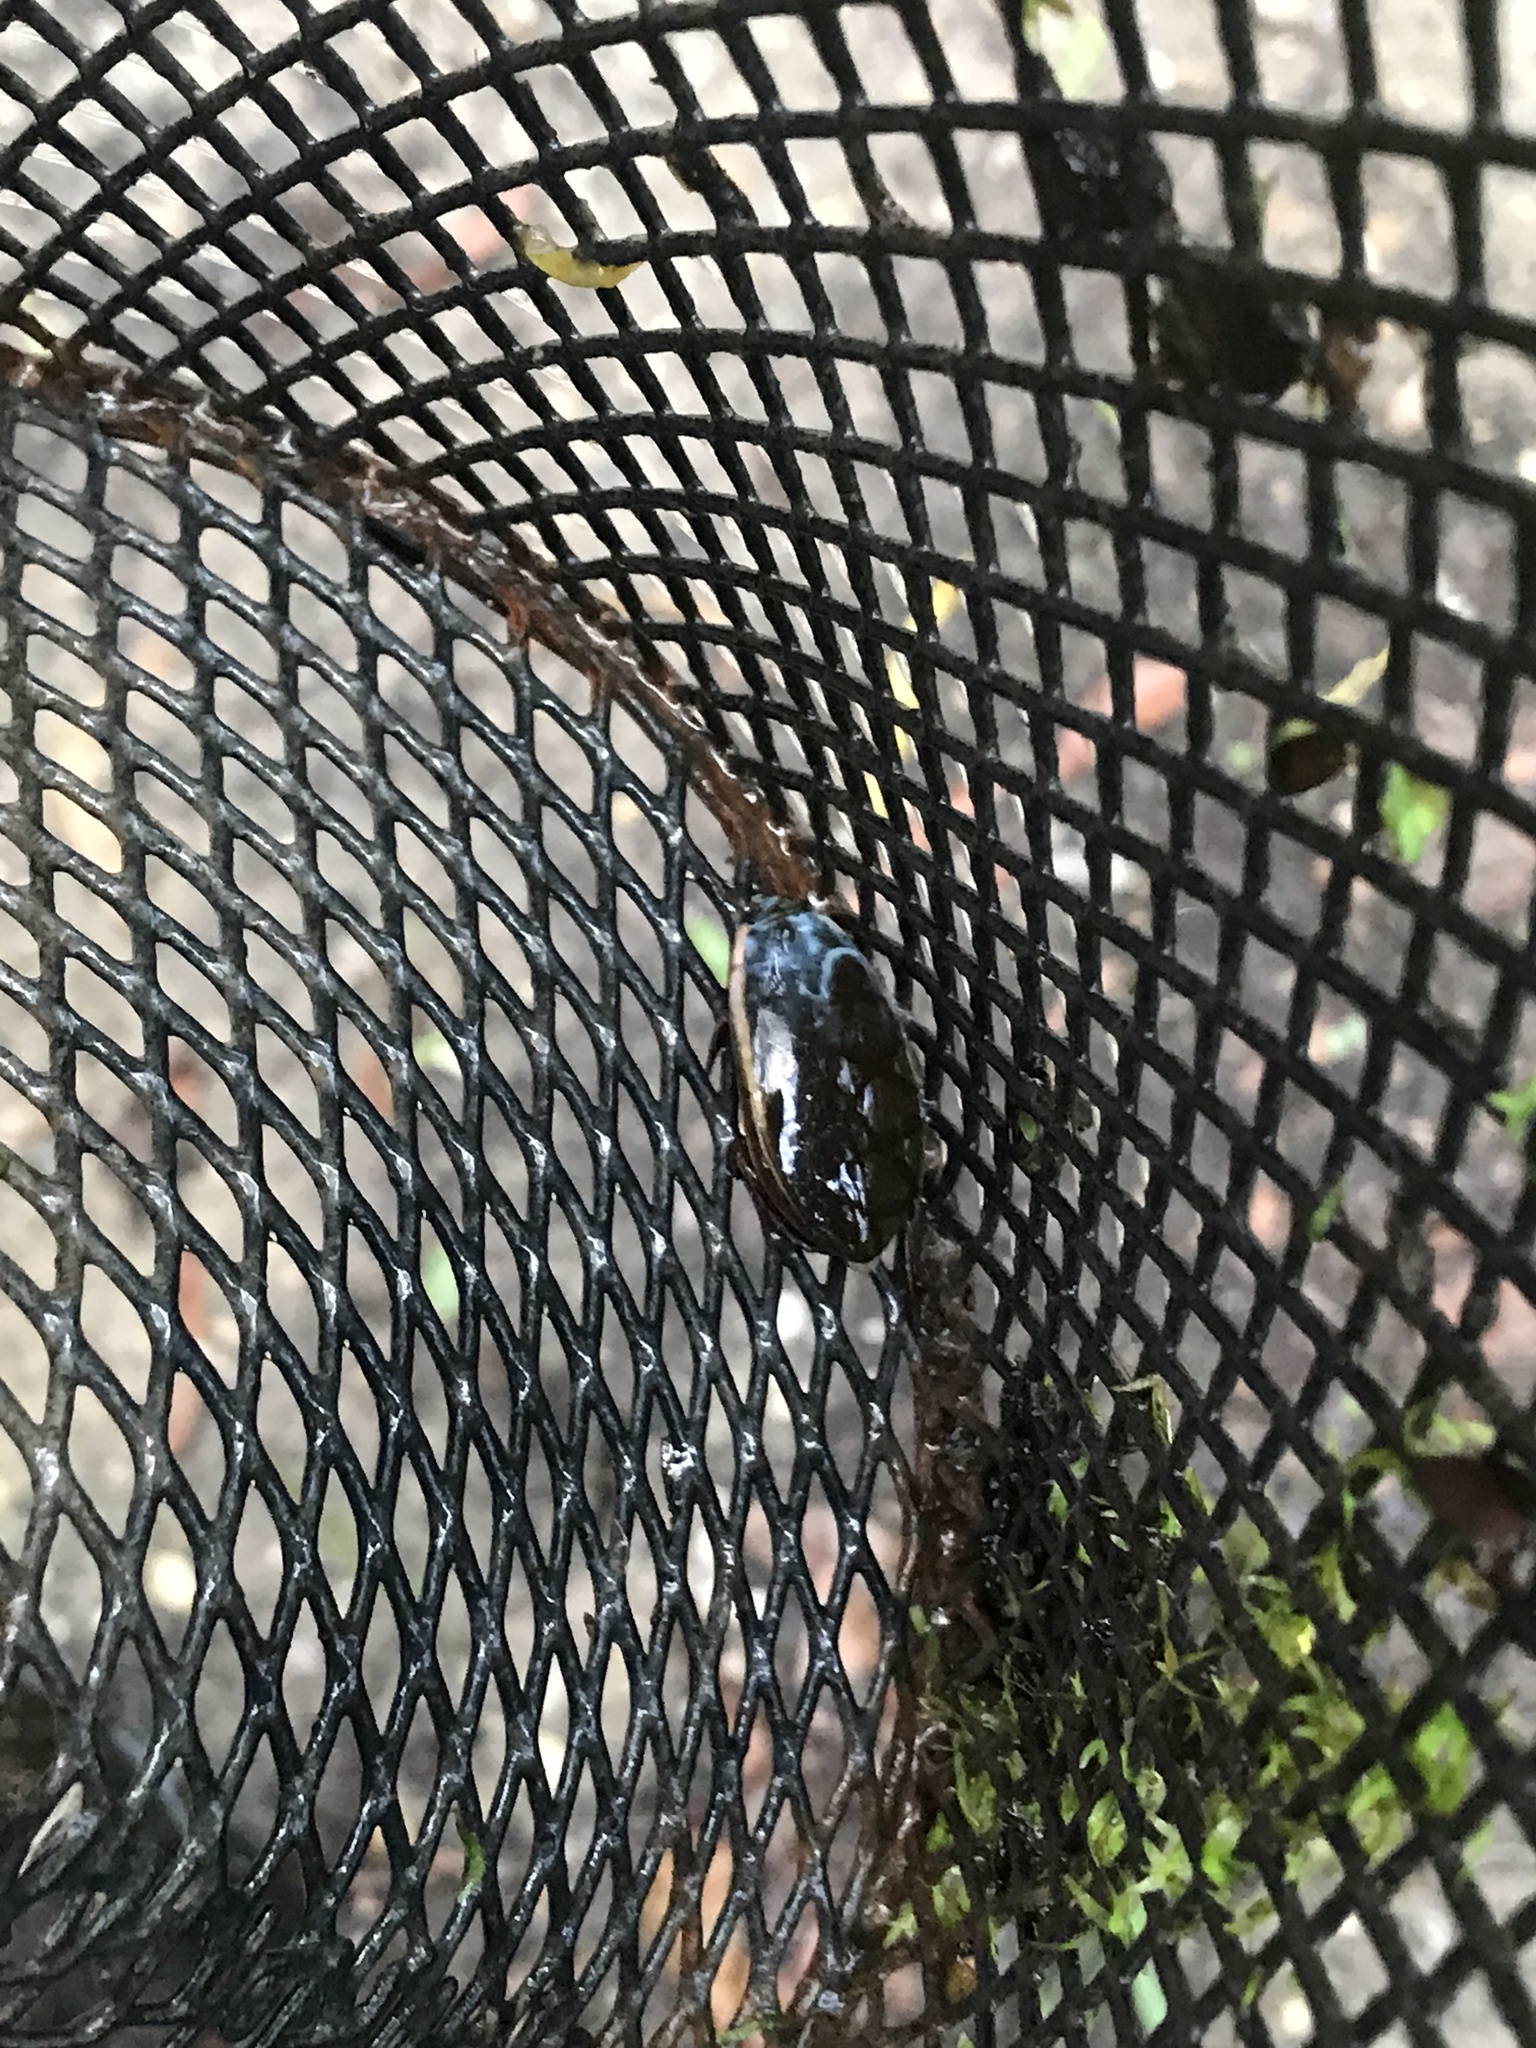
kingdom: Animalia
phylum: Arthropoda
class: Insecta
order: Coleoptera
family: Dytiscidae
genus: Cybister
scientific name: Cybister fimbriolatus
